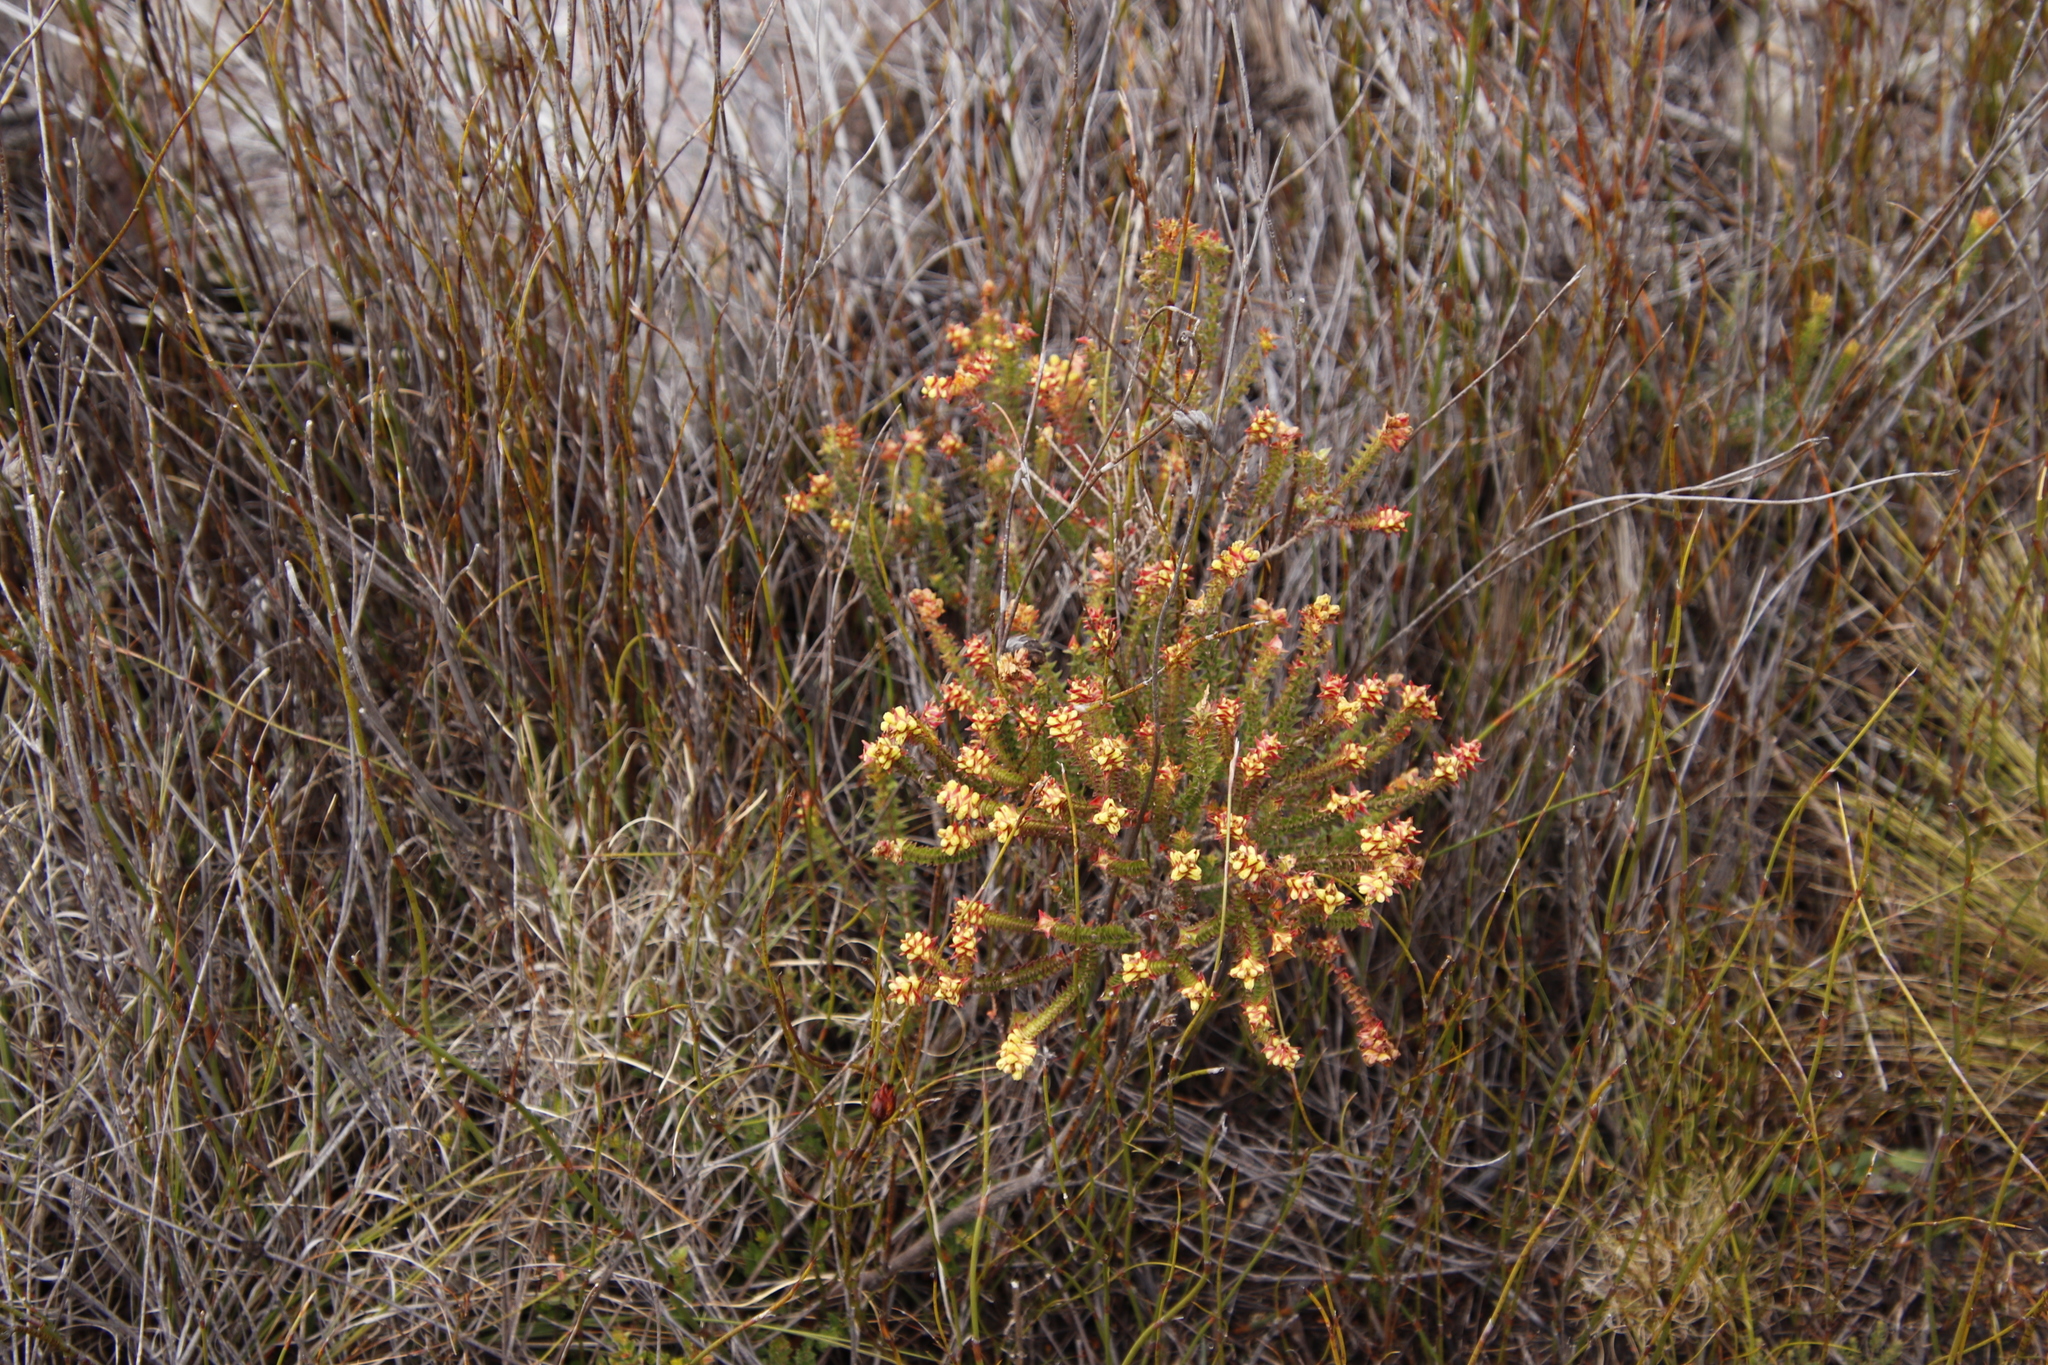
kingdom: Plantae
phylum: Tracheophyta
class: Magnoliopsida
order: Myrtales
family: Penaeaceae
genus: Penaea
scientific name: Penaea mucronata
